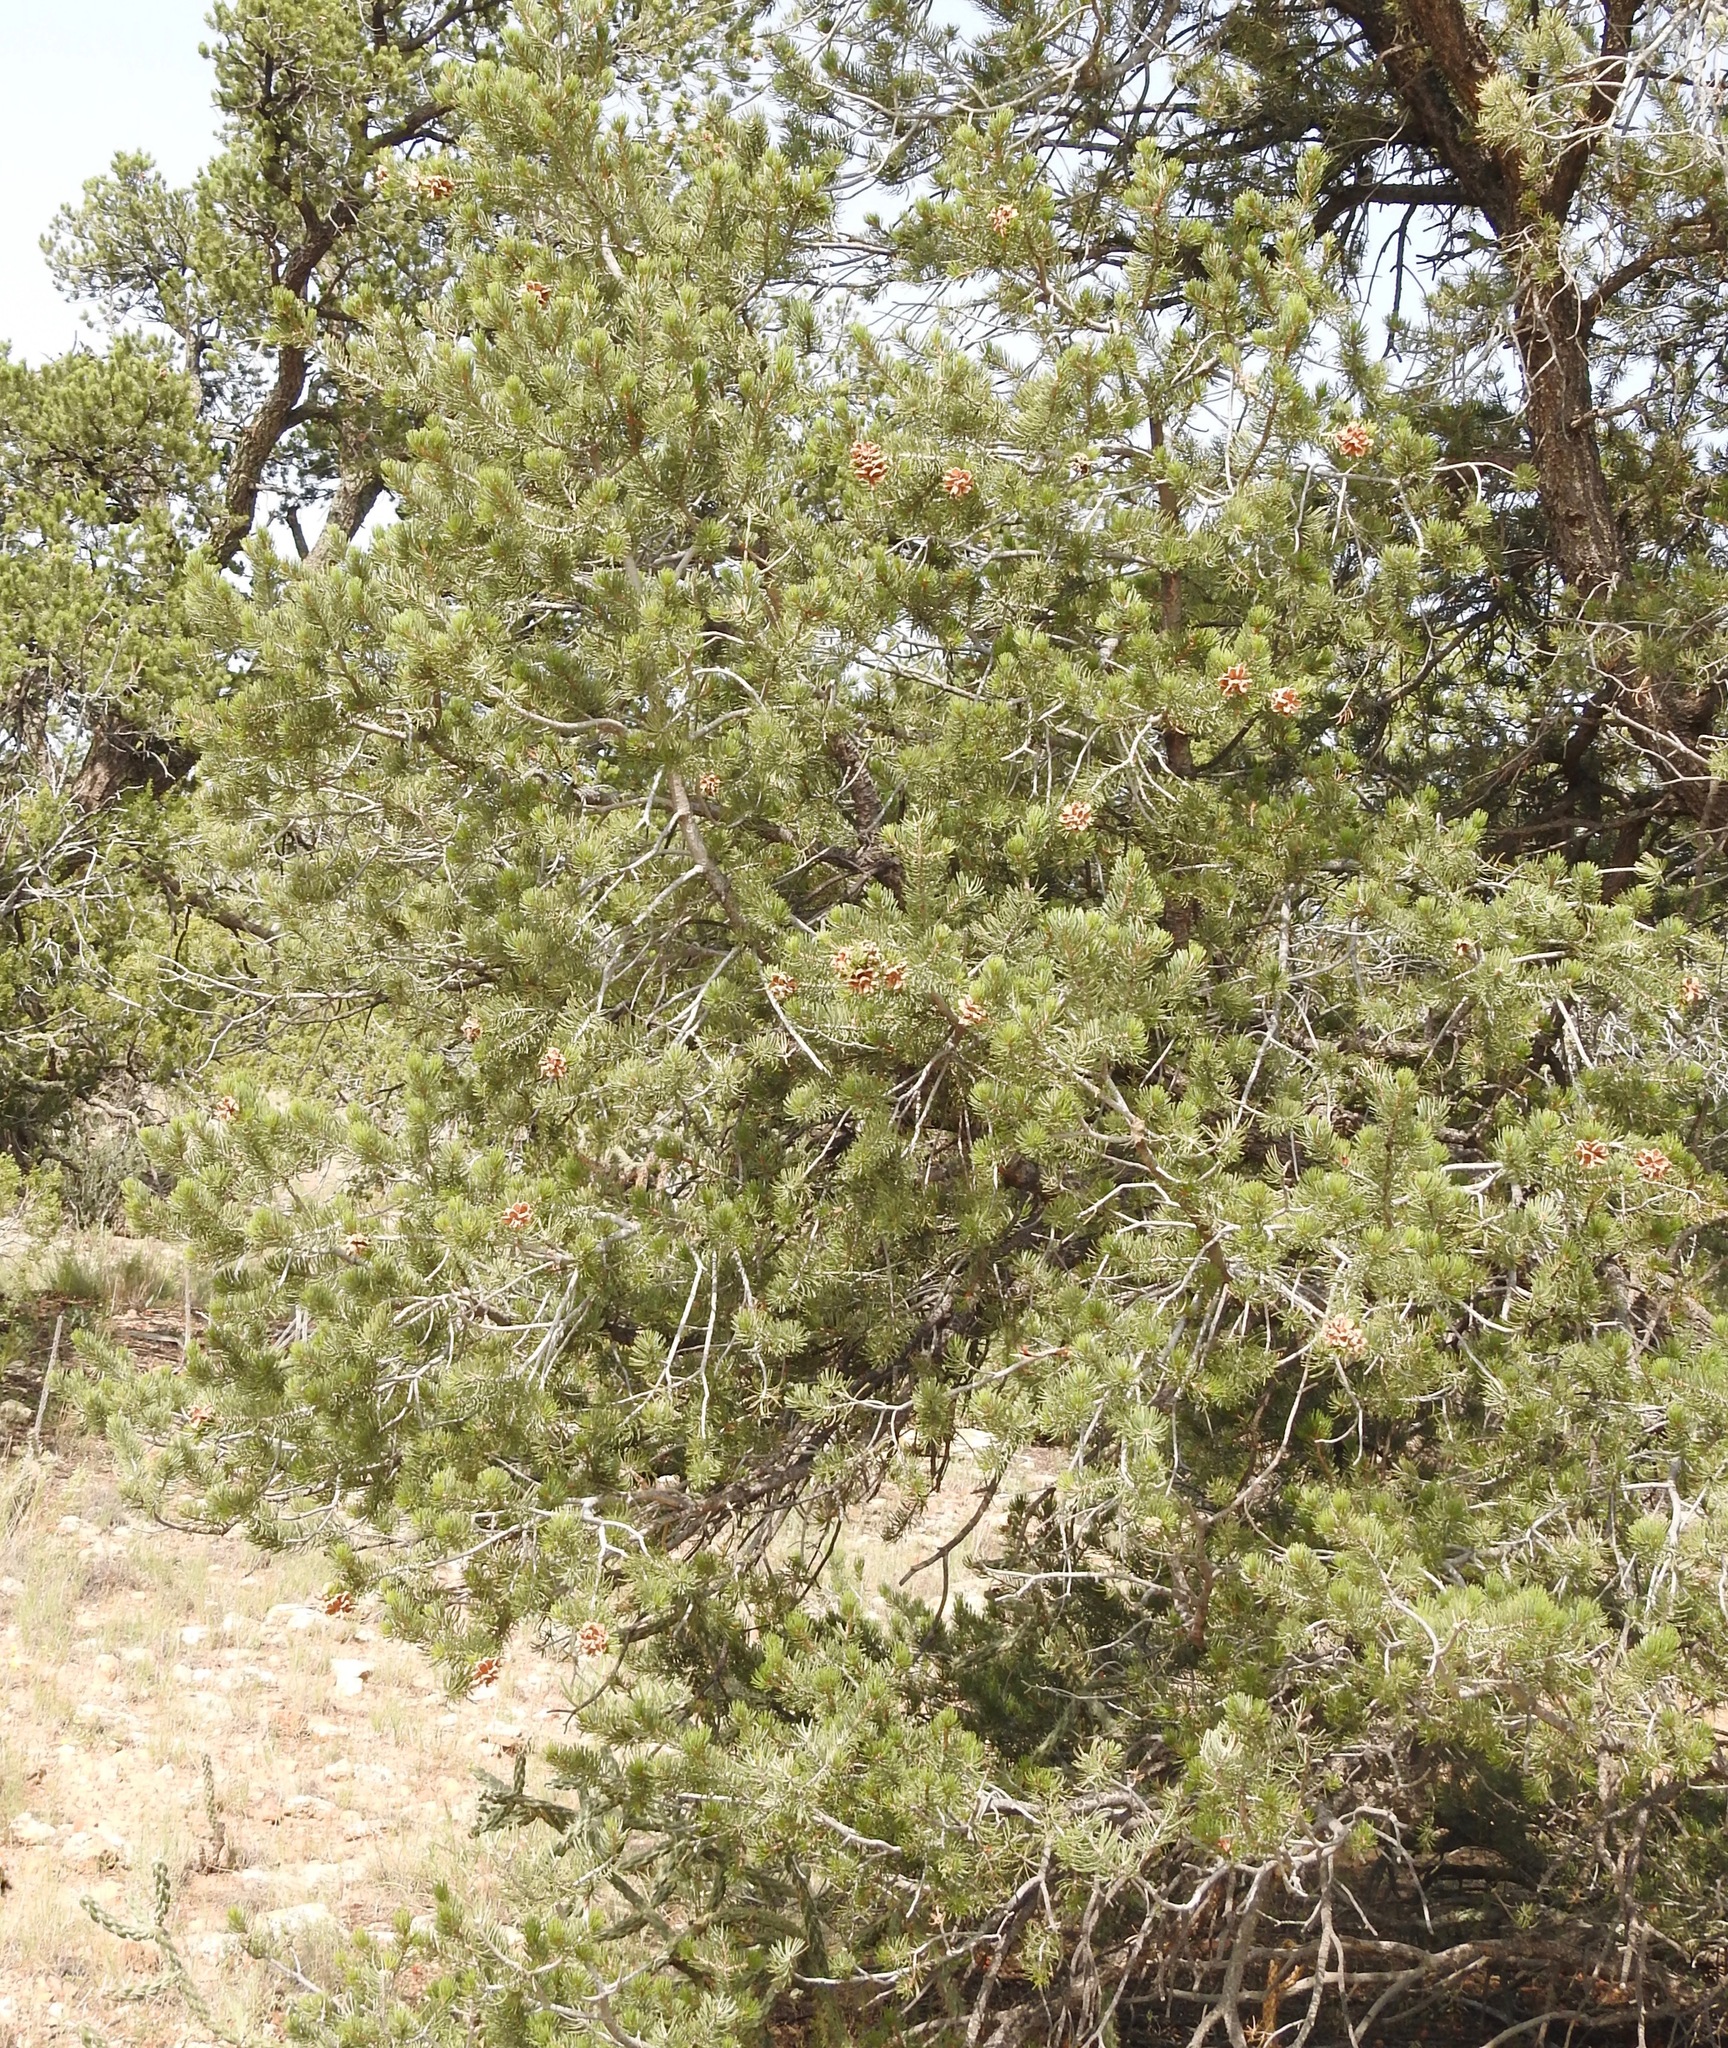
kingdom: Plantae
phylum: Tracheophyta
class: Pinopsida
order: Pinales
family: Pinaceae
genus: Pinus
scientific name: Pinus edulis
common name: Colorado pinyon
